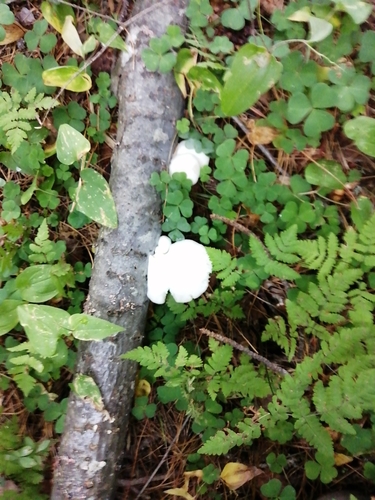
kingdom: Fungi
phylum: Basidiomycota
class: Agaricomycetes
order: Agaricales
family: Pleurotaceae
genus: Pleurotus
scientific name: Pleurotus pulmonarius
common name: Pale oyster
